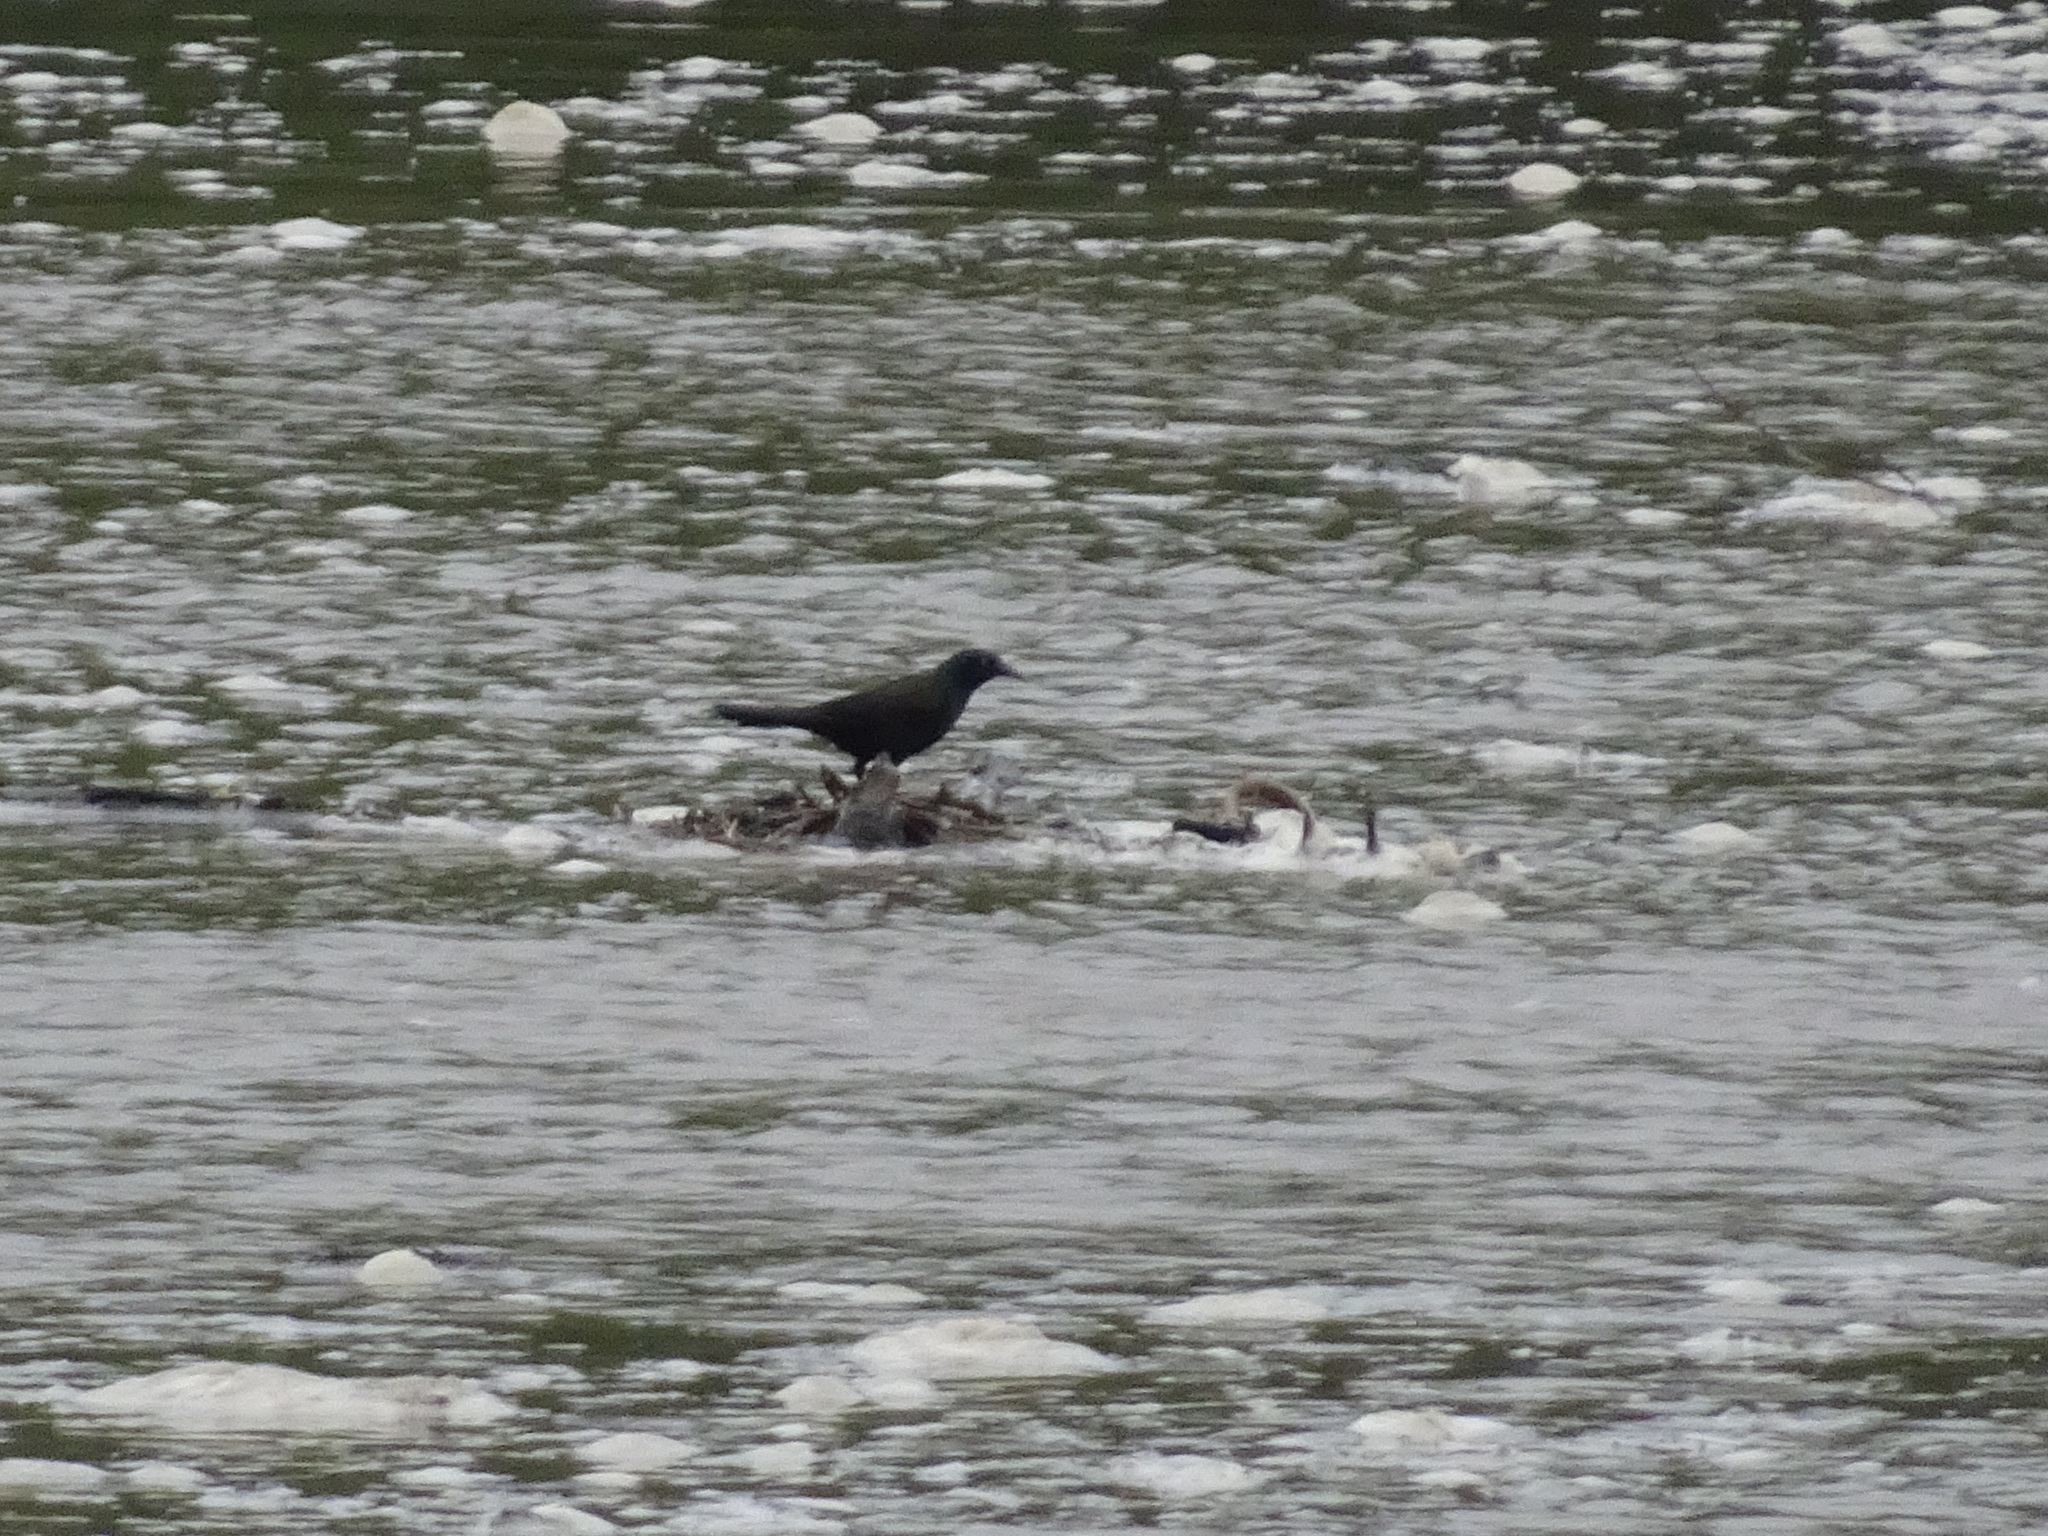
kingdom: Animalia
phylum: Chordata
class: Aves
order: Passeriformes
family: Icteridae
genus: Quiscalus
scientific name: Quiscalus quiscula
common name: Common grackle
